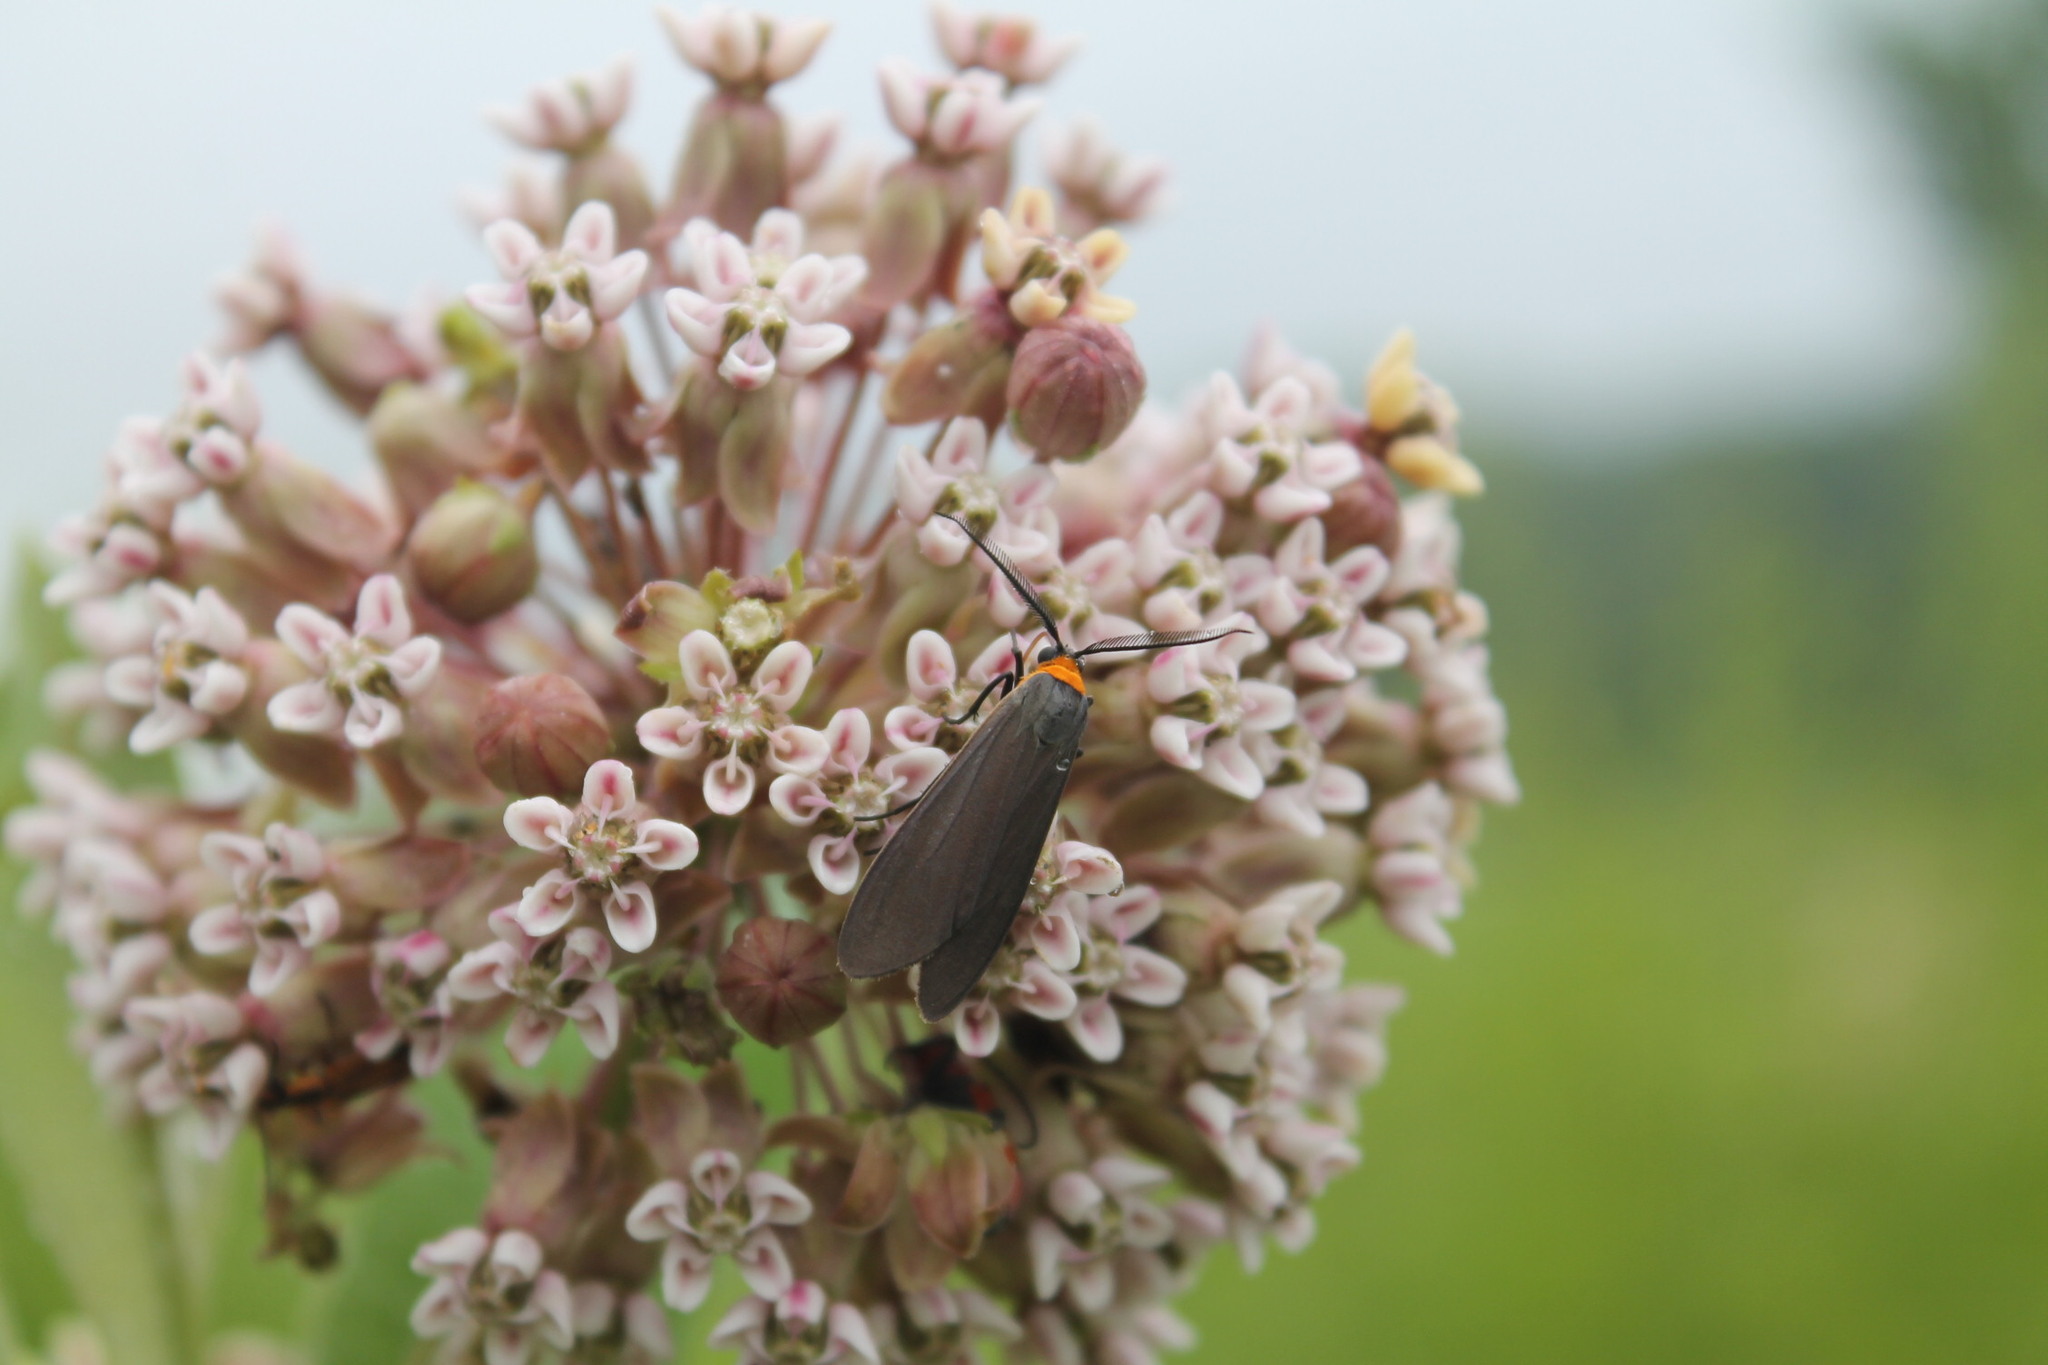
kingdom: Animalia
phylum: Arthropoda
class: Insecta
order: Lepidoptera
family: Erebidae
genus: Cisseps
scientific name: Cisseps fulvicollis
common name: Yellow-collared scape moth
